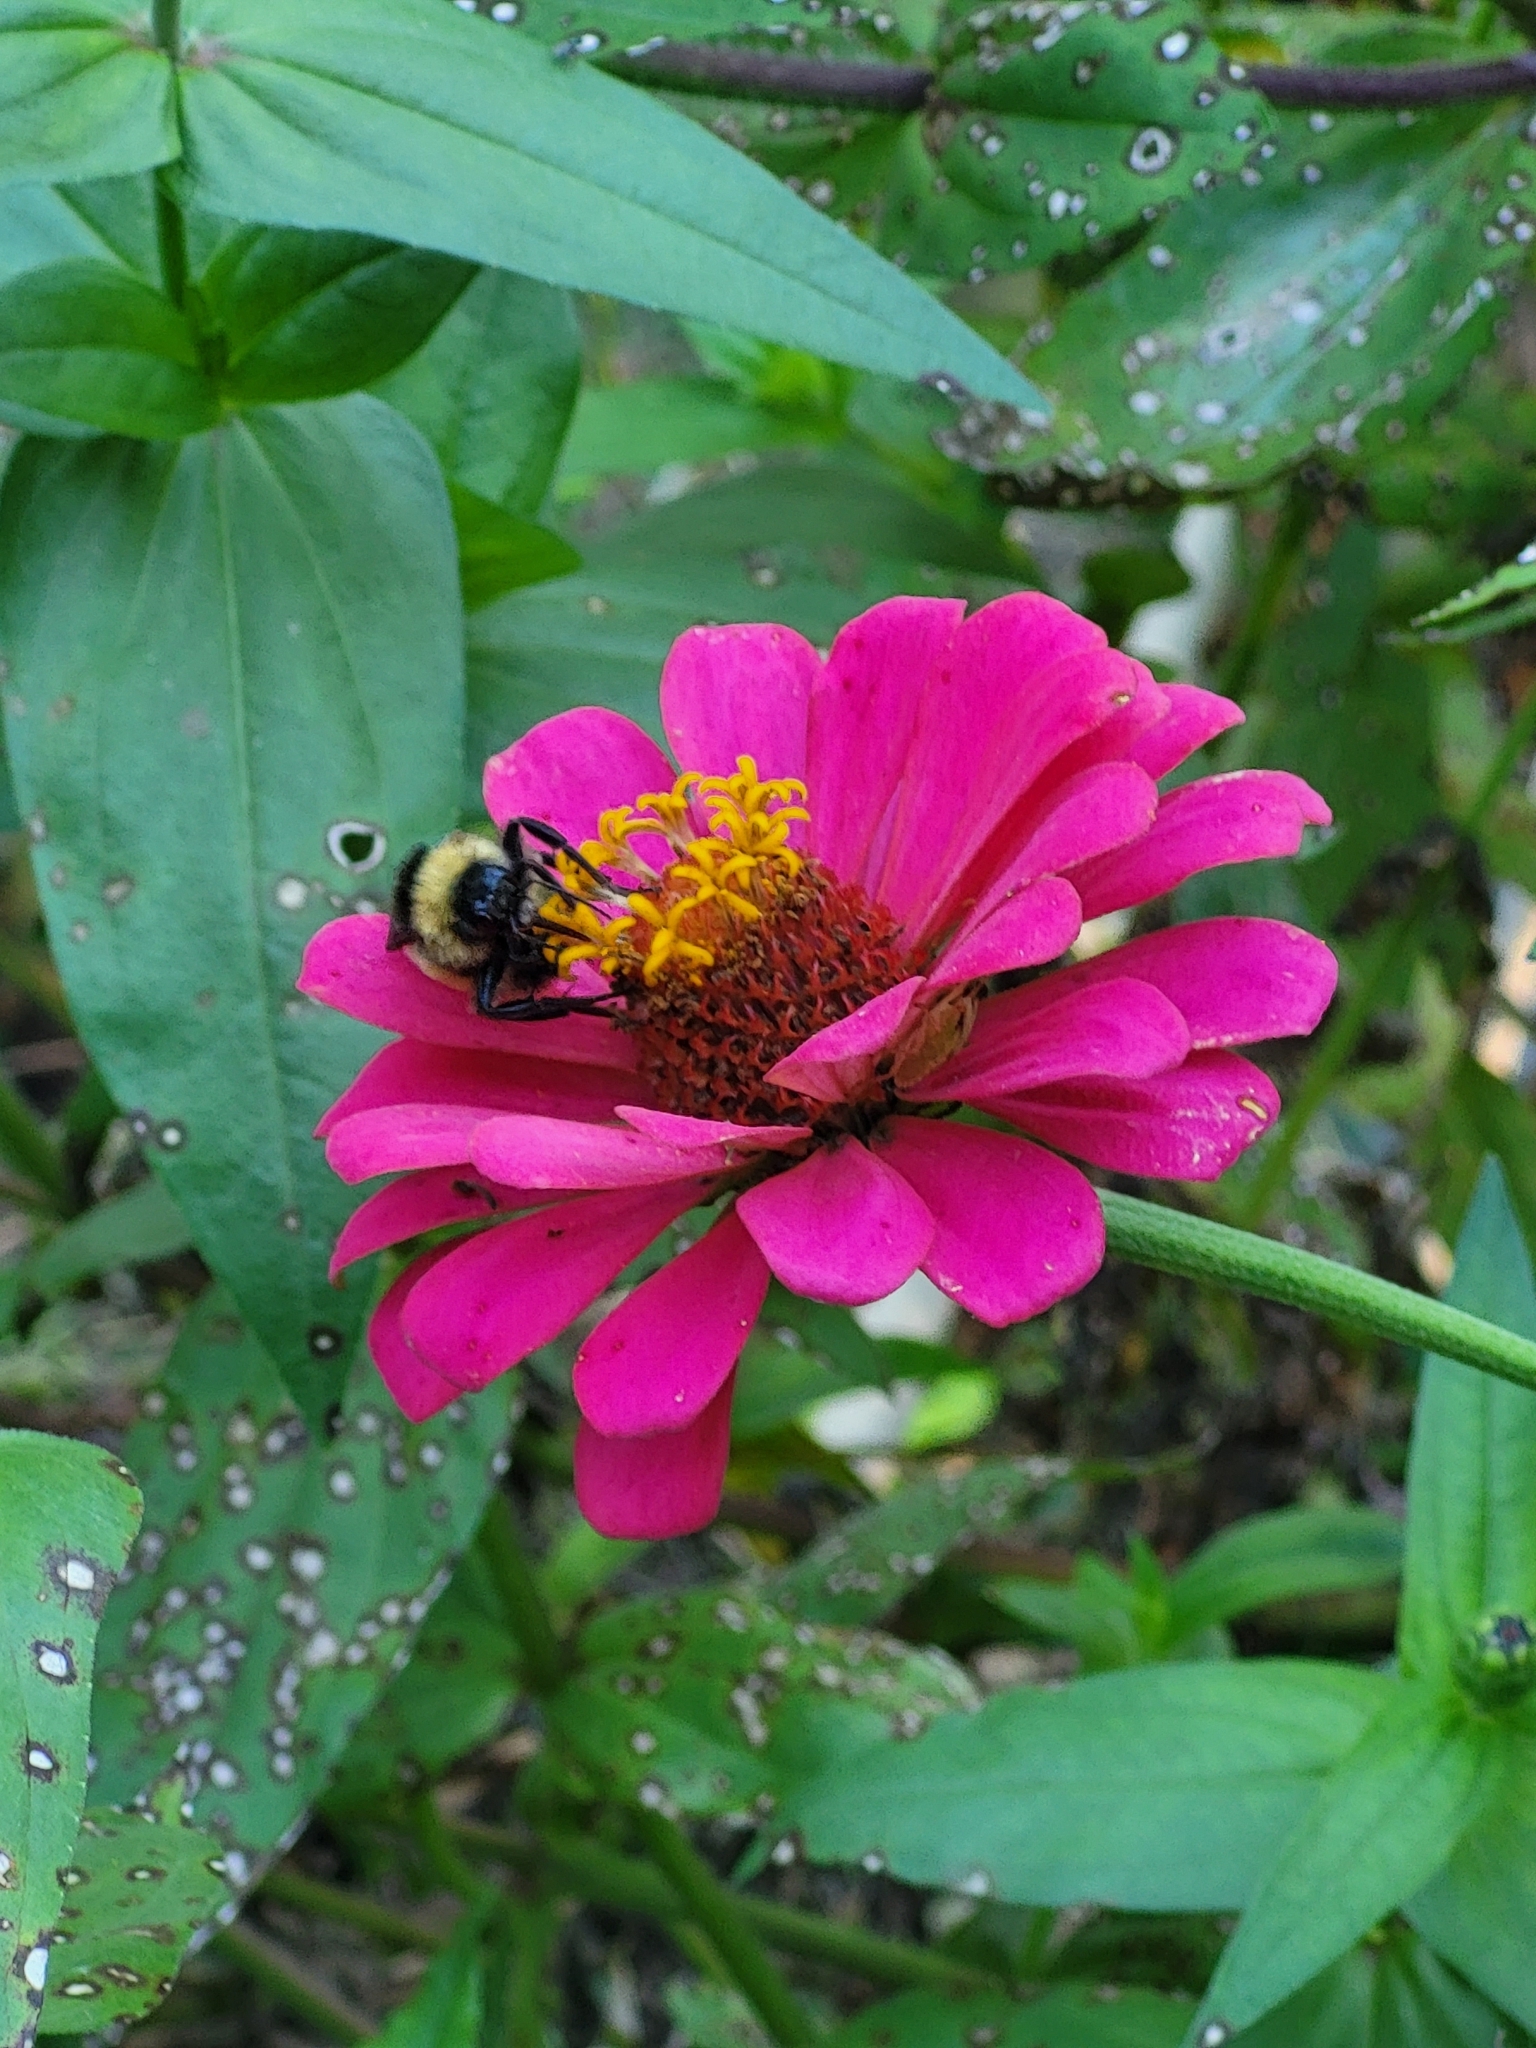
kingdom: Animalia
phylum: Arthropoda
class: Insecta
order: Hymenoptera
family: Apidae
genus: Bombus
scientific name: Bombus pensylvanicus
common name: Bumble bee
